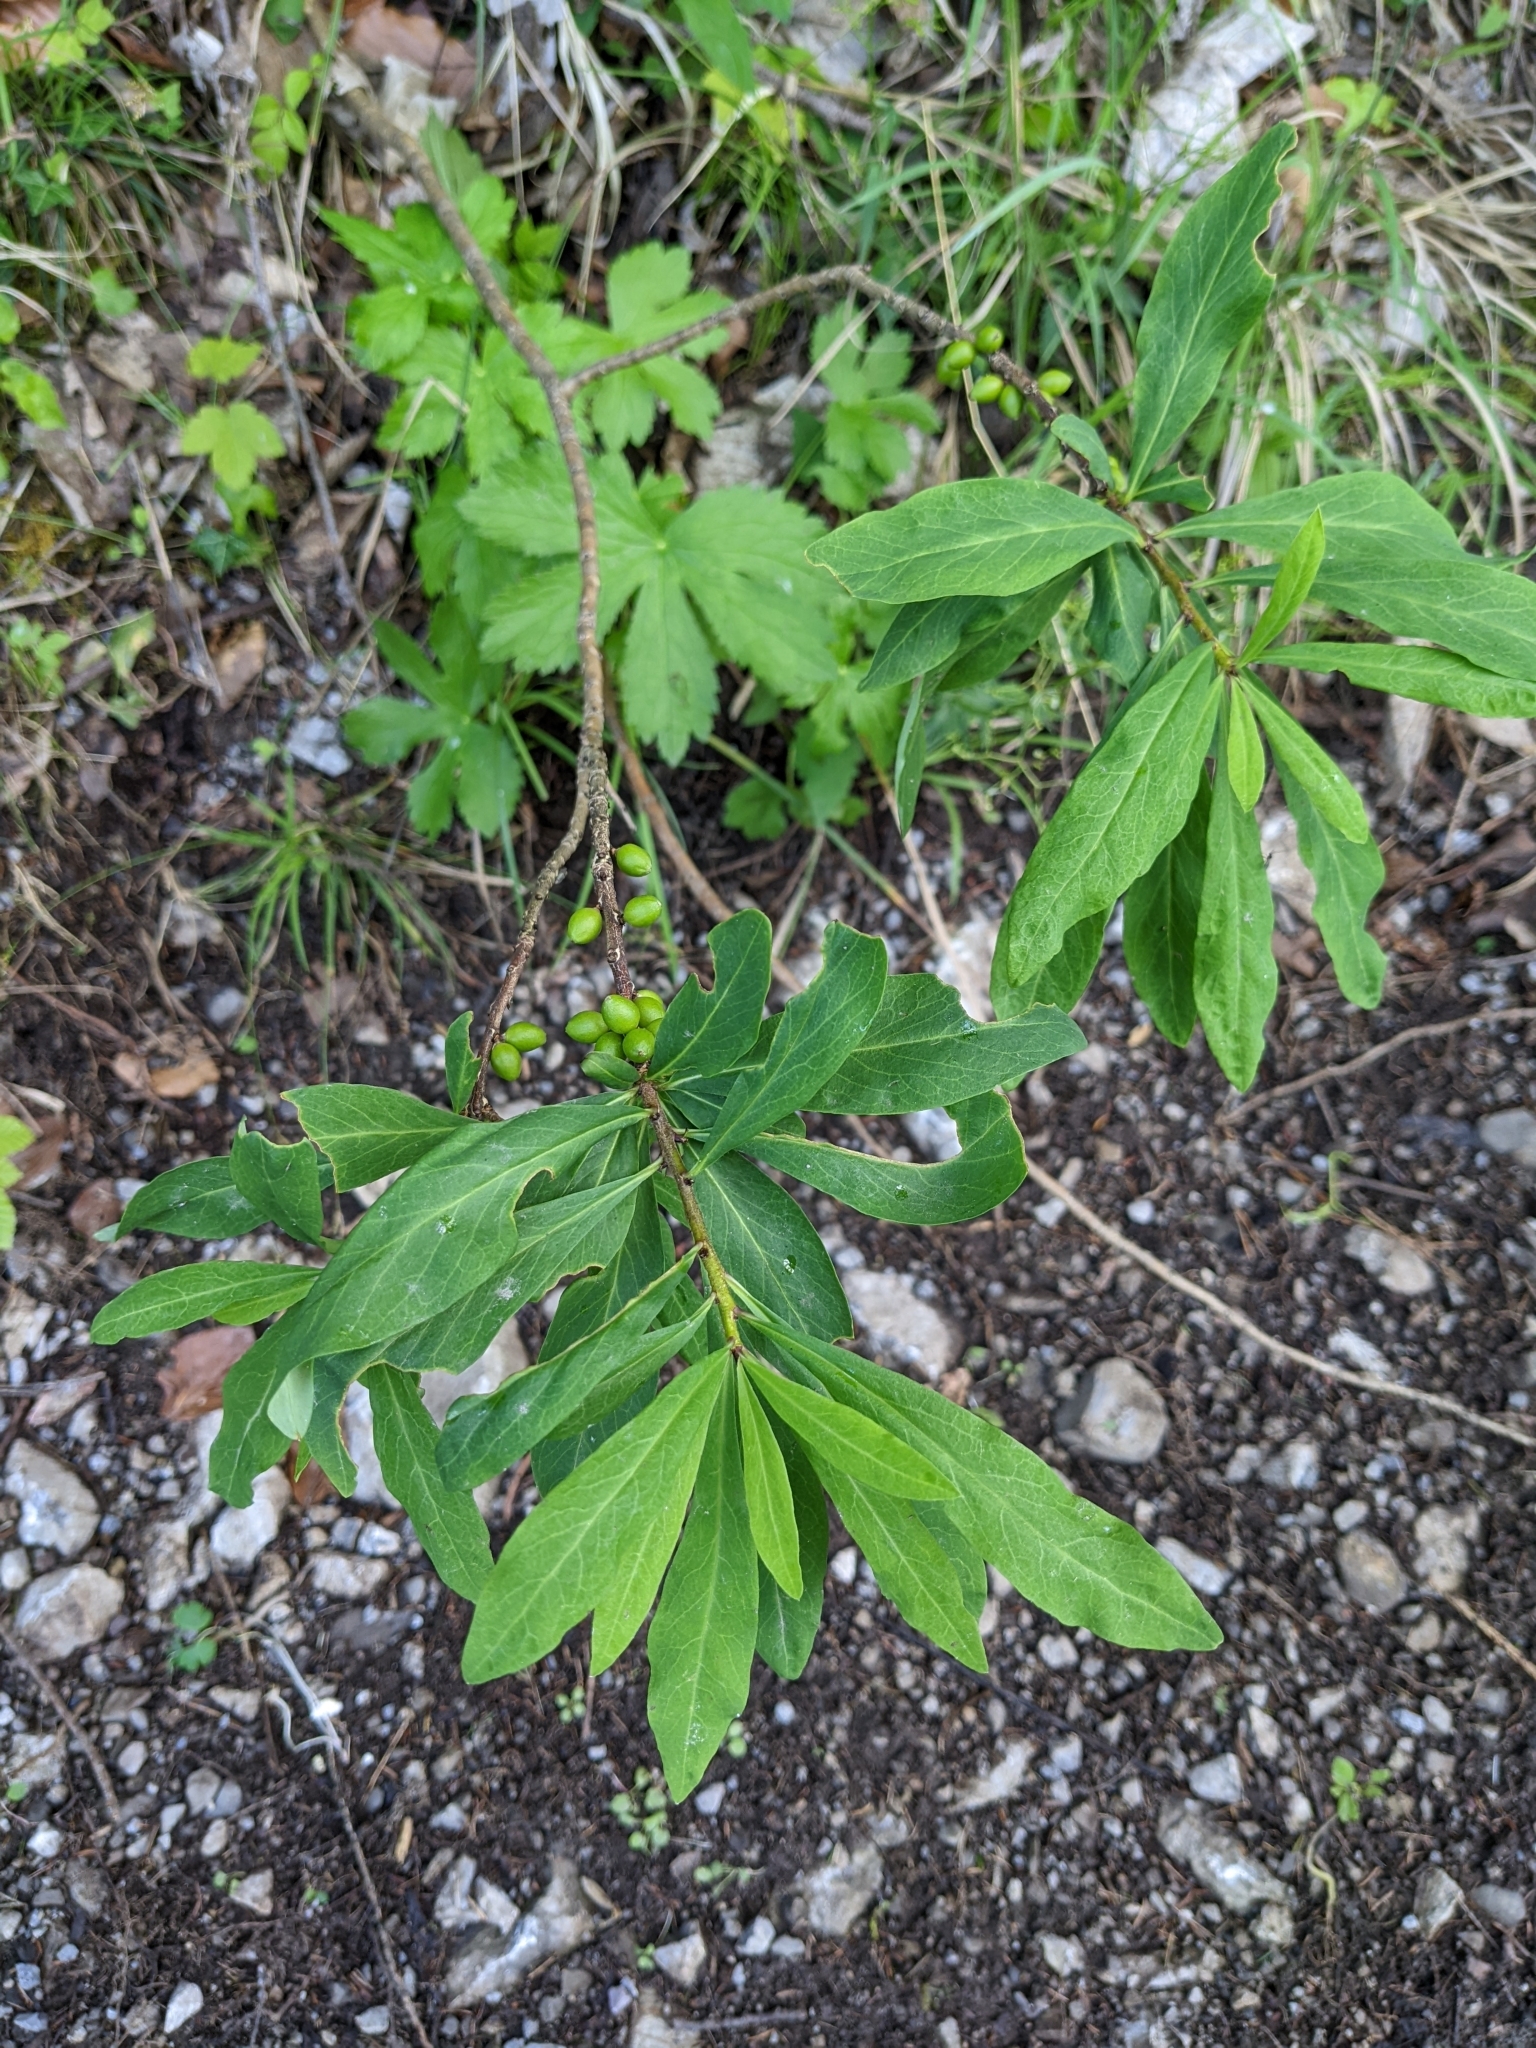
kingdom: Plantae
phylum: Tracheophyta
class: Magnoliopsida
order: Malvales
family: Thymelaeaceae
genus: Daphne
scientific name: Daphne mezereum
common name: Mezereon
